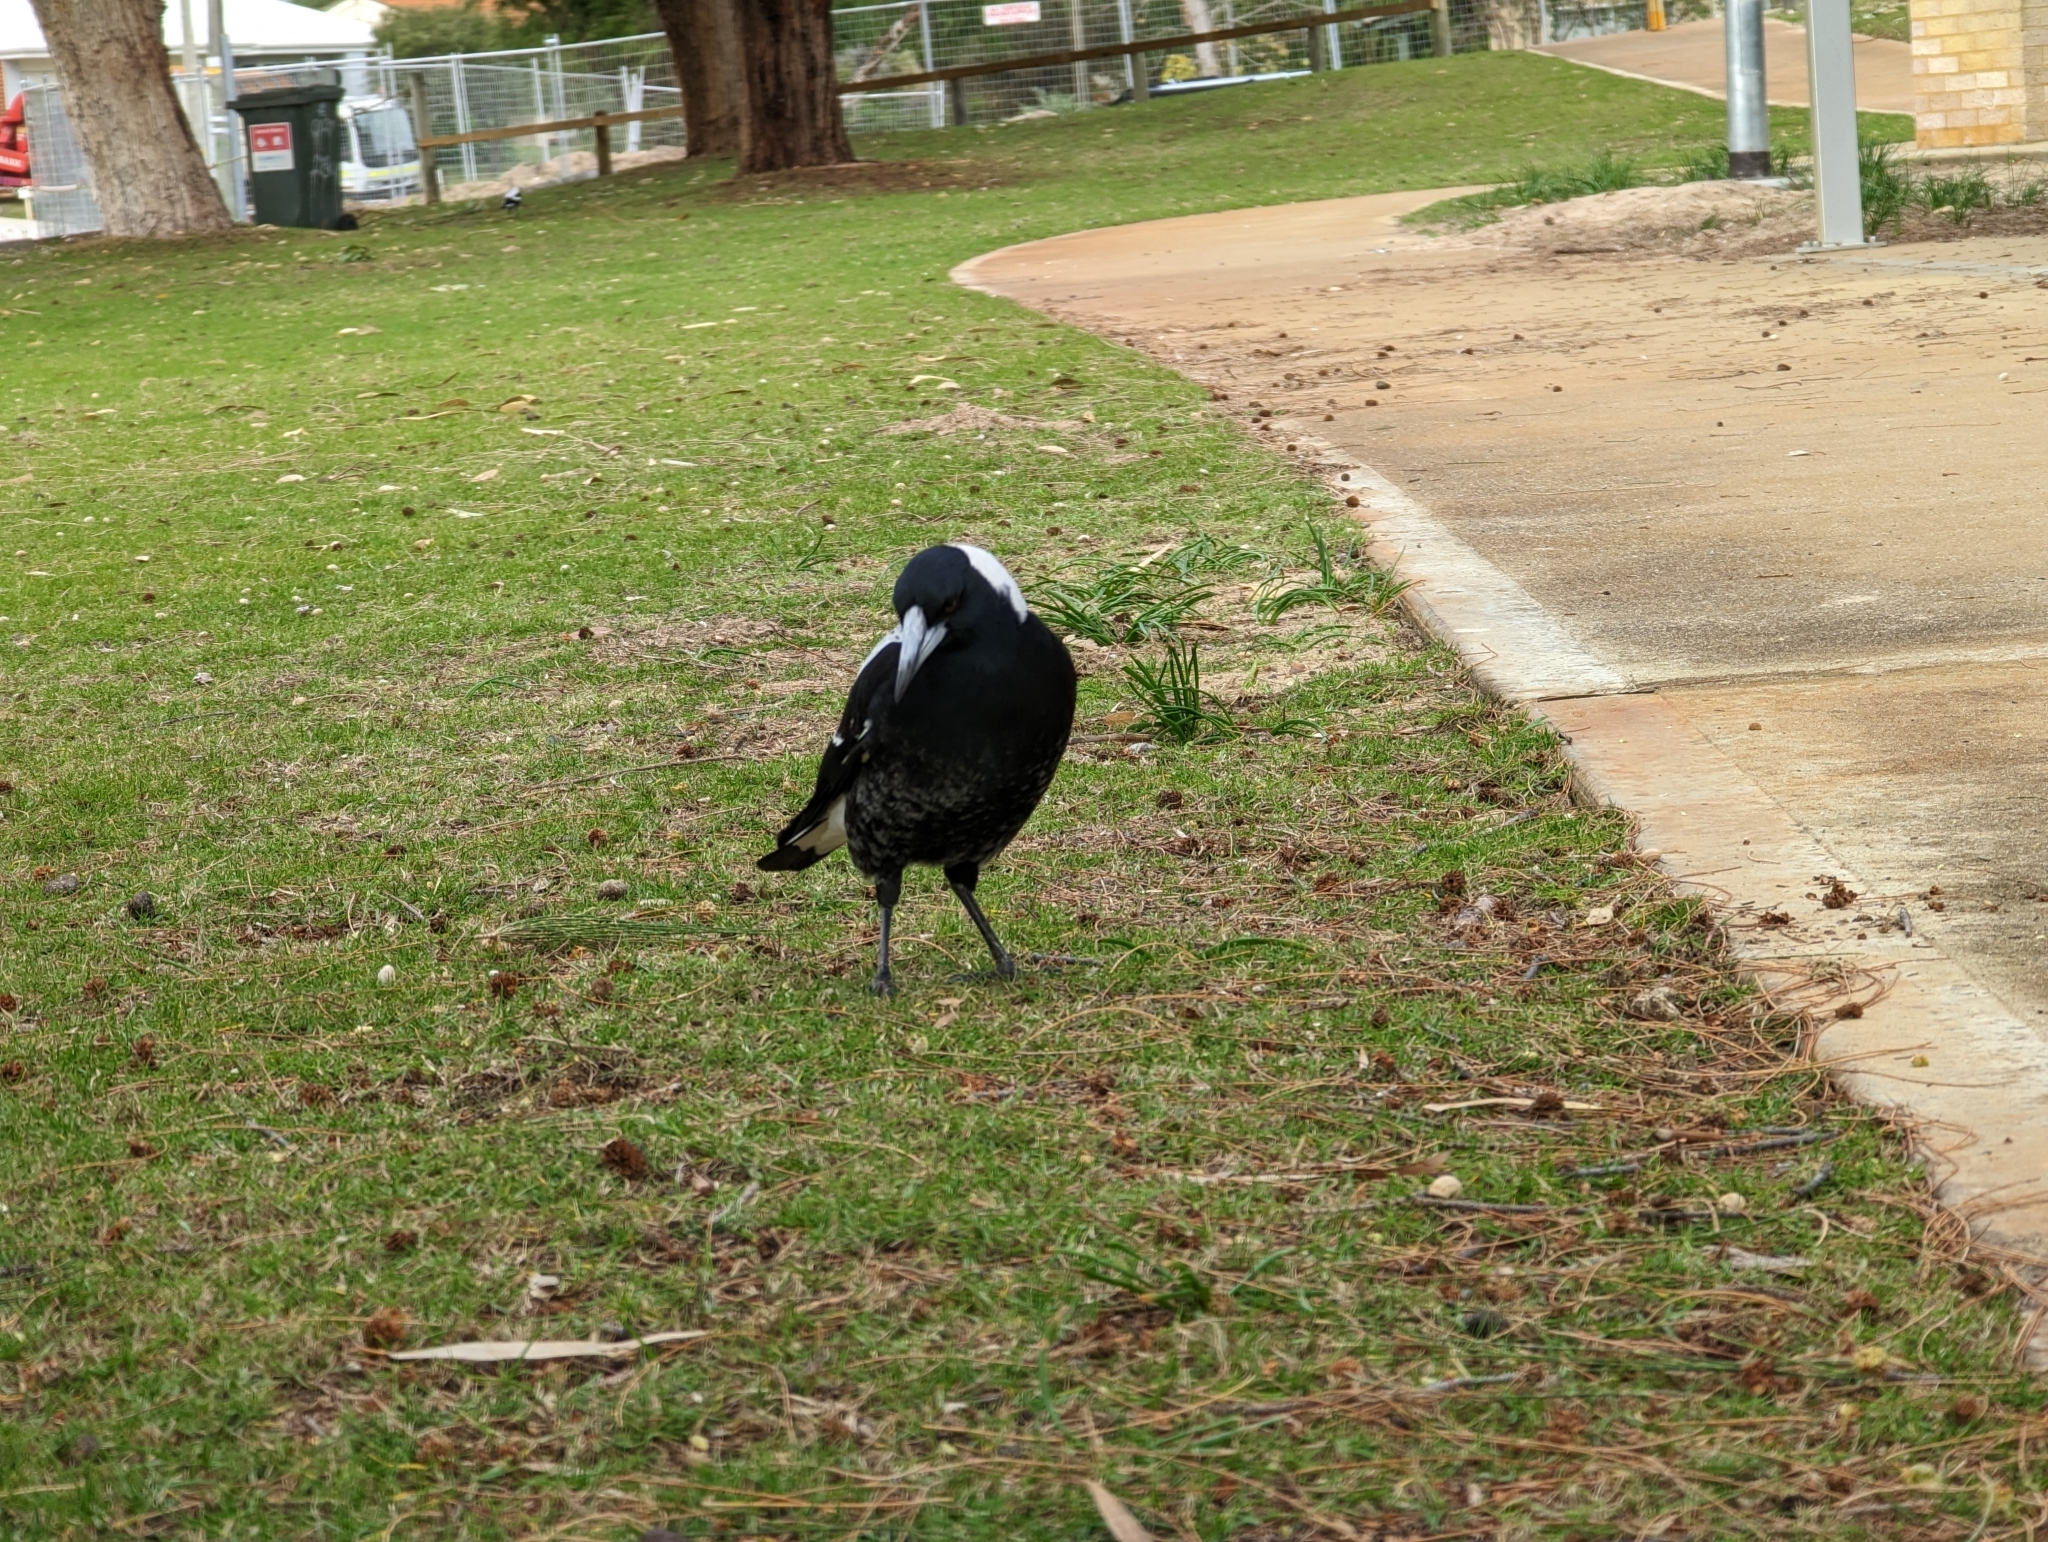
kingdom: Animalia
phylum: Chordata
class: Aves
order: Passeriformes
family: Cracticidae
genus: Gymnorhina
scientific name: Gymnorhina tibicen
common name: Australian magpie
